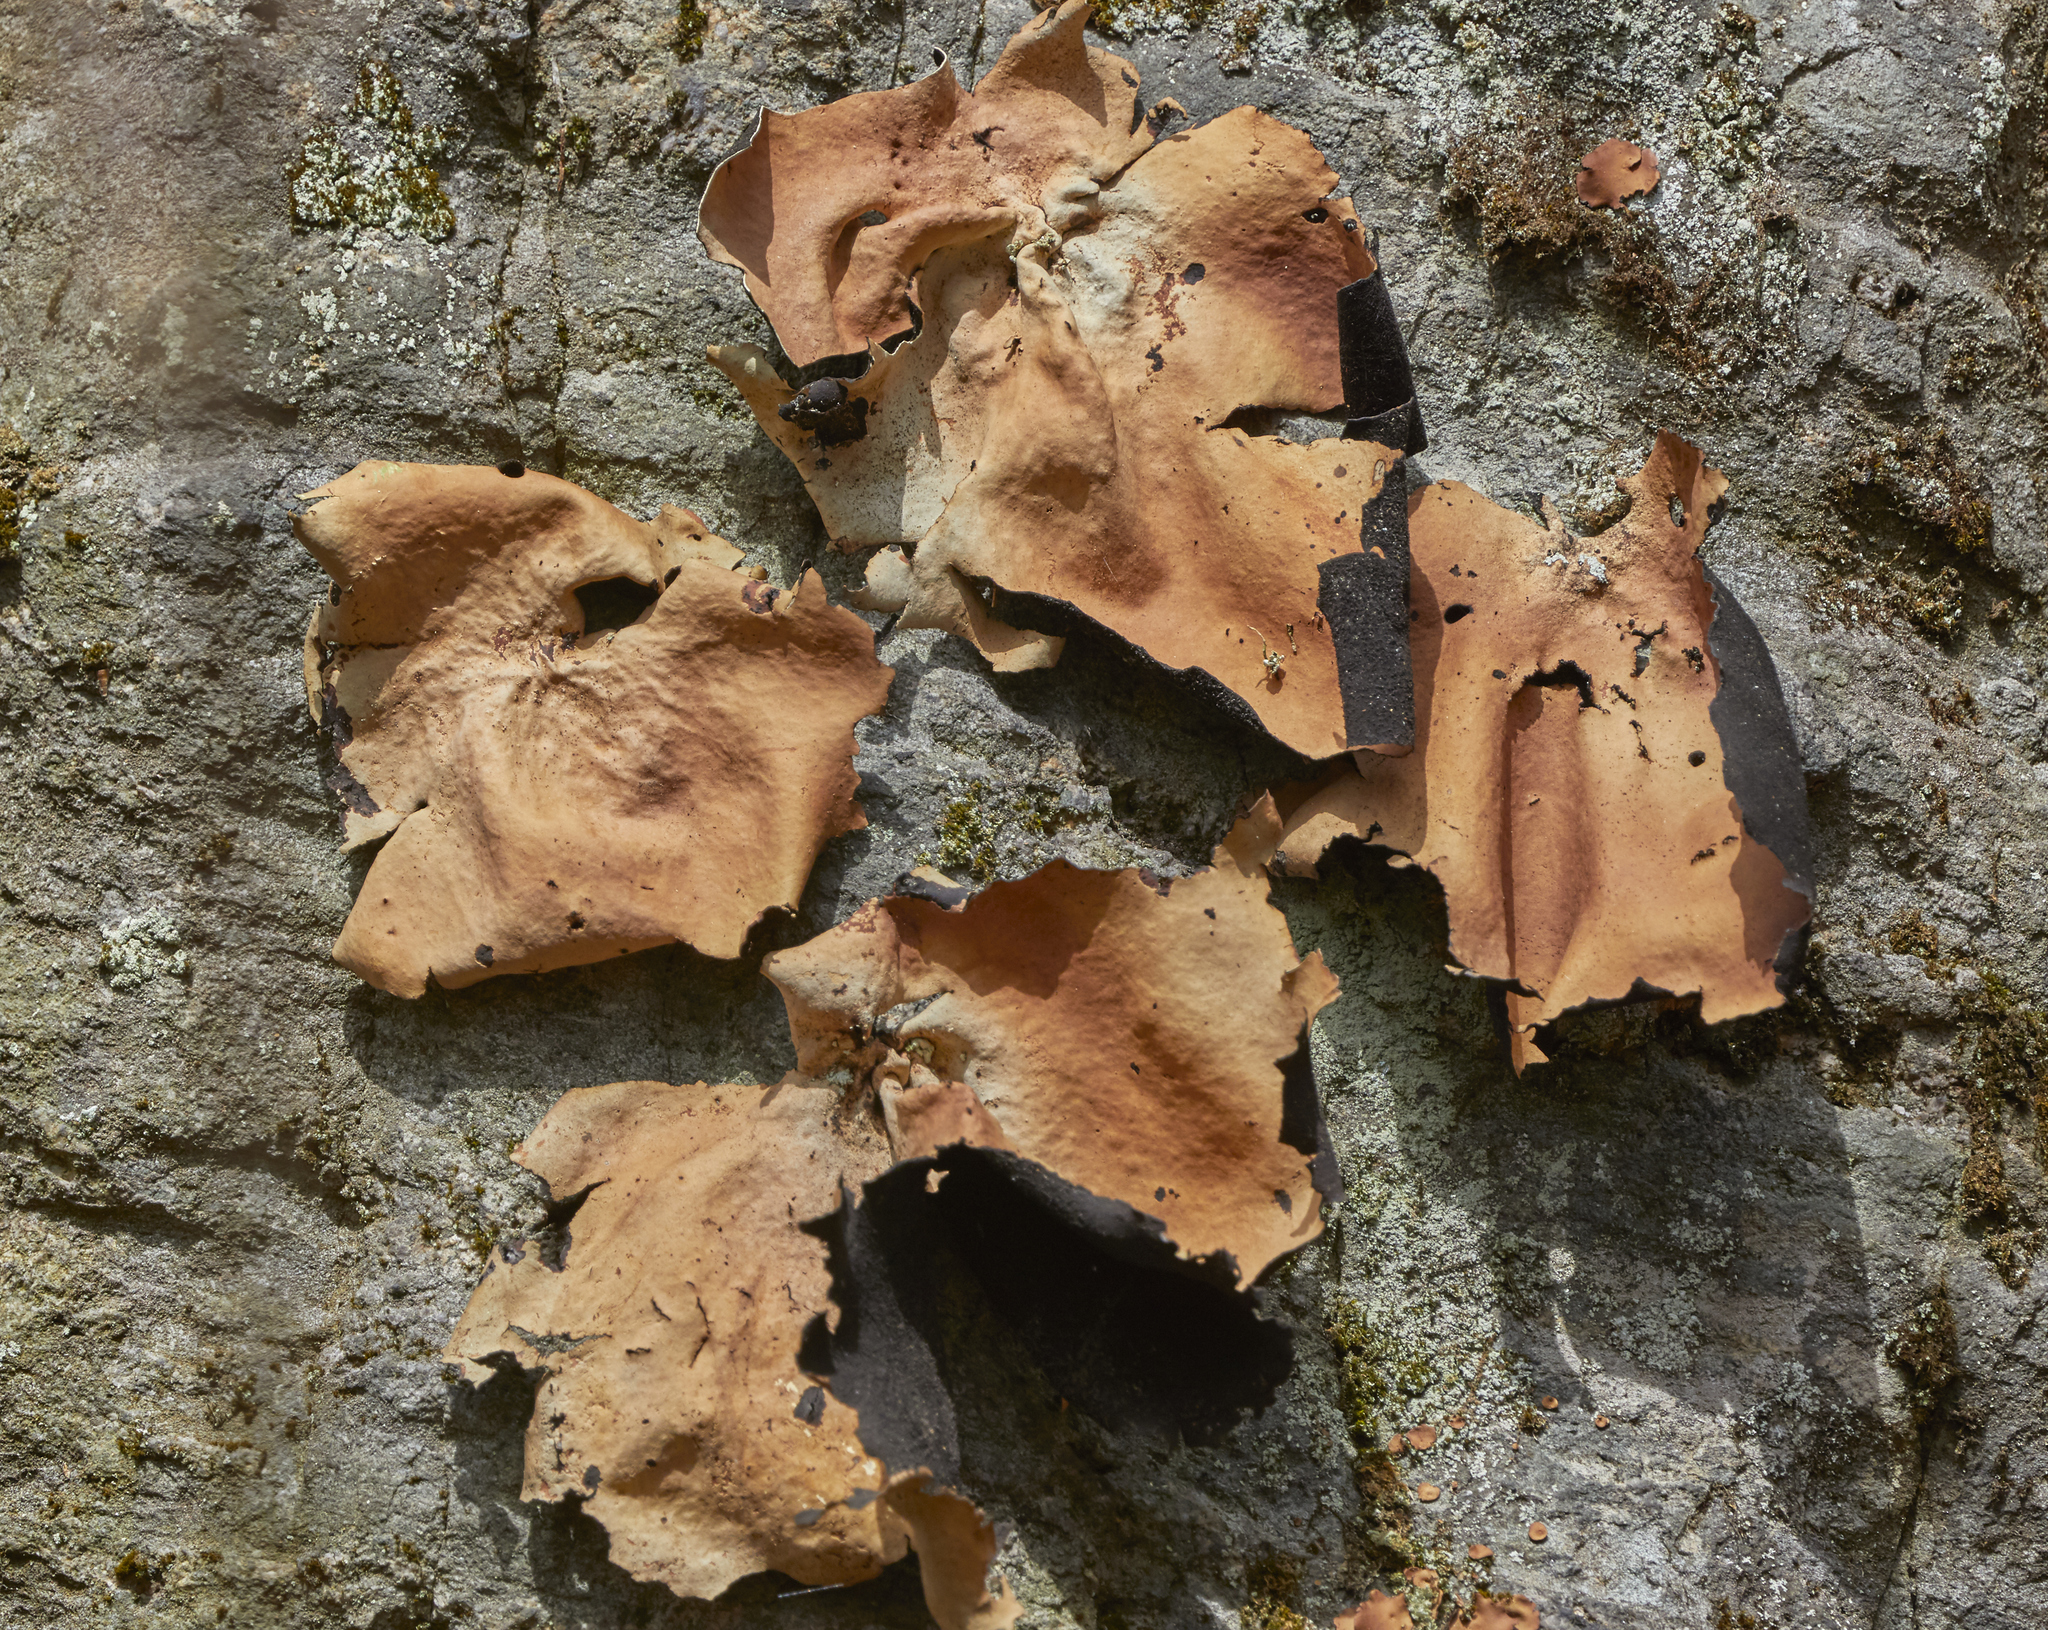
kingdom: Fungi
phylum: Ascomycota
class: Lecanoromycetes
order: Umbilicariales
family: Umbilicariaceae
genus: Umbilicaria
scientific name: Umbilicaria mammulata
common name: Smooth rock tripe
